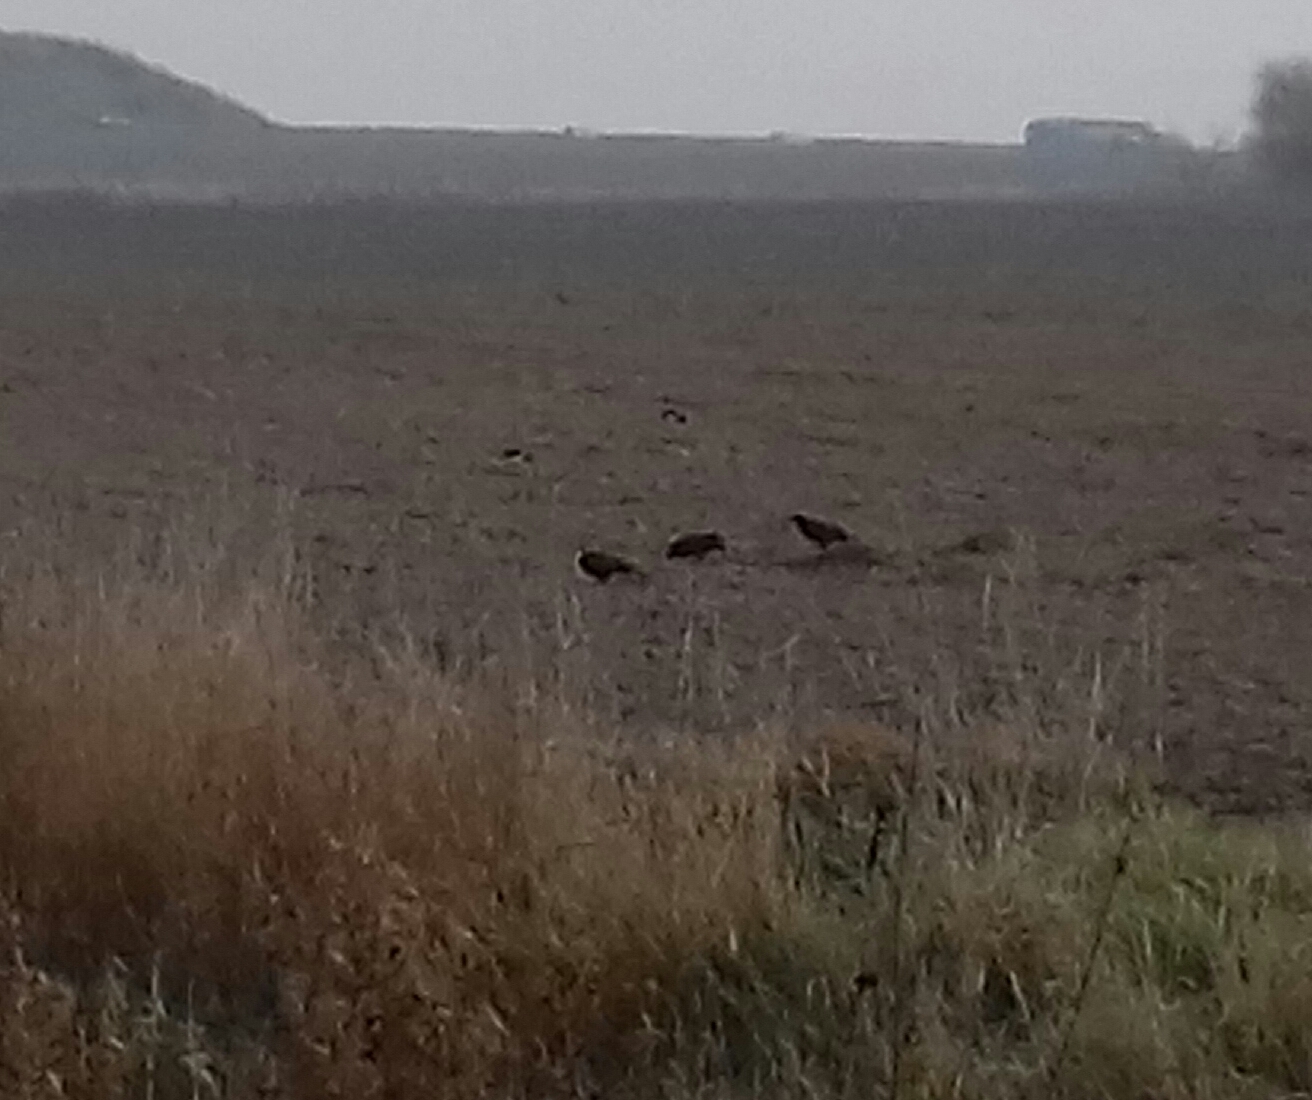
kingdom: Animalia
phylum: Chordata
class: Aves
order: Passeriformes
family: Corvidae
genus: Corvus
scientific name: Corvus frugilegus
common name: Rook
